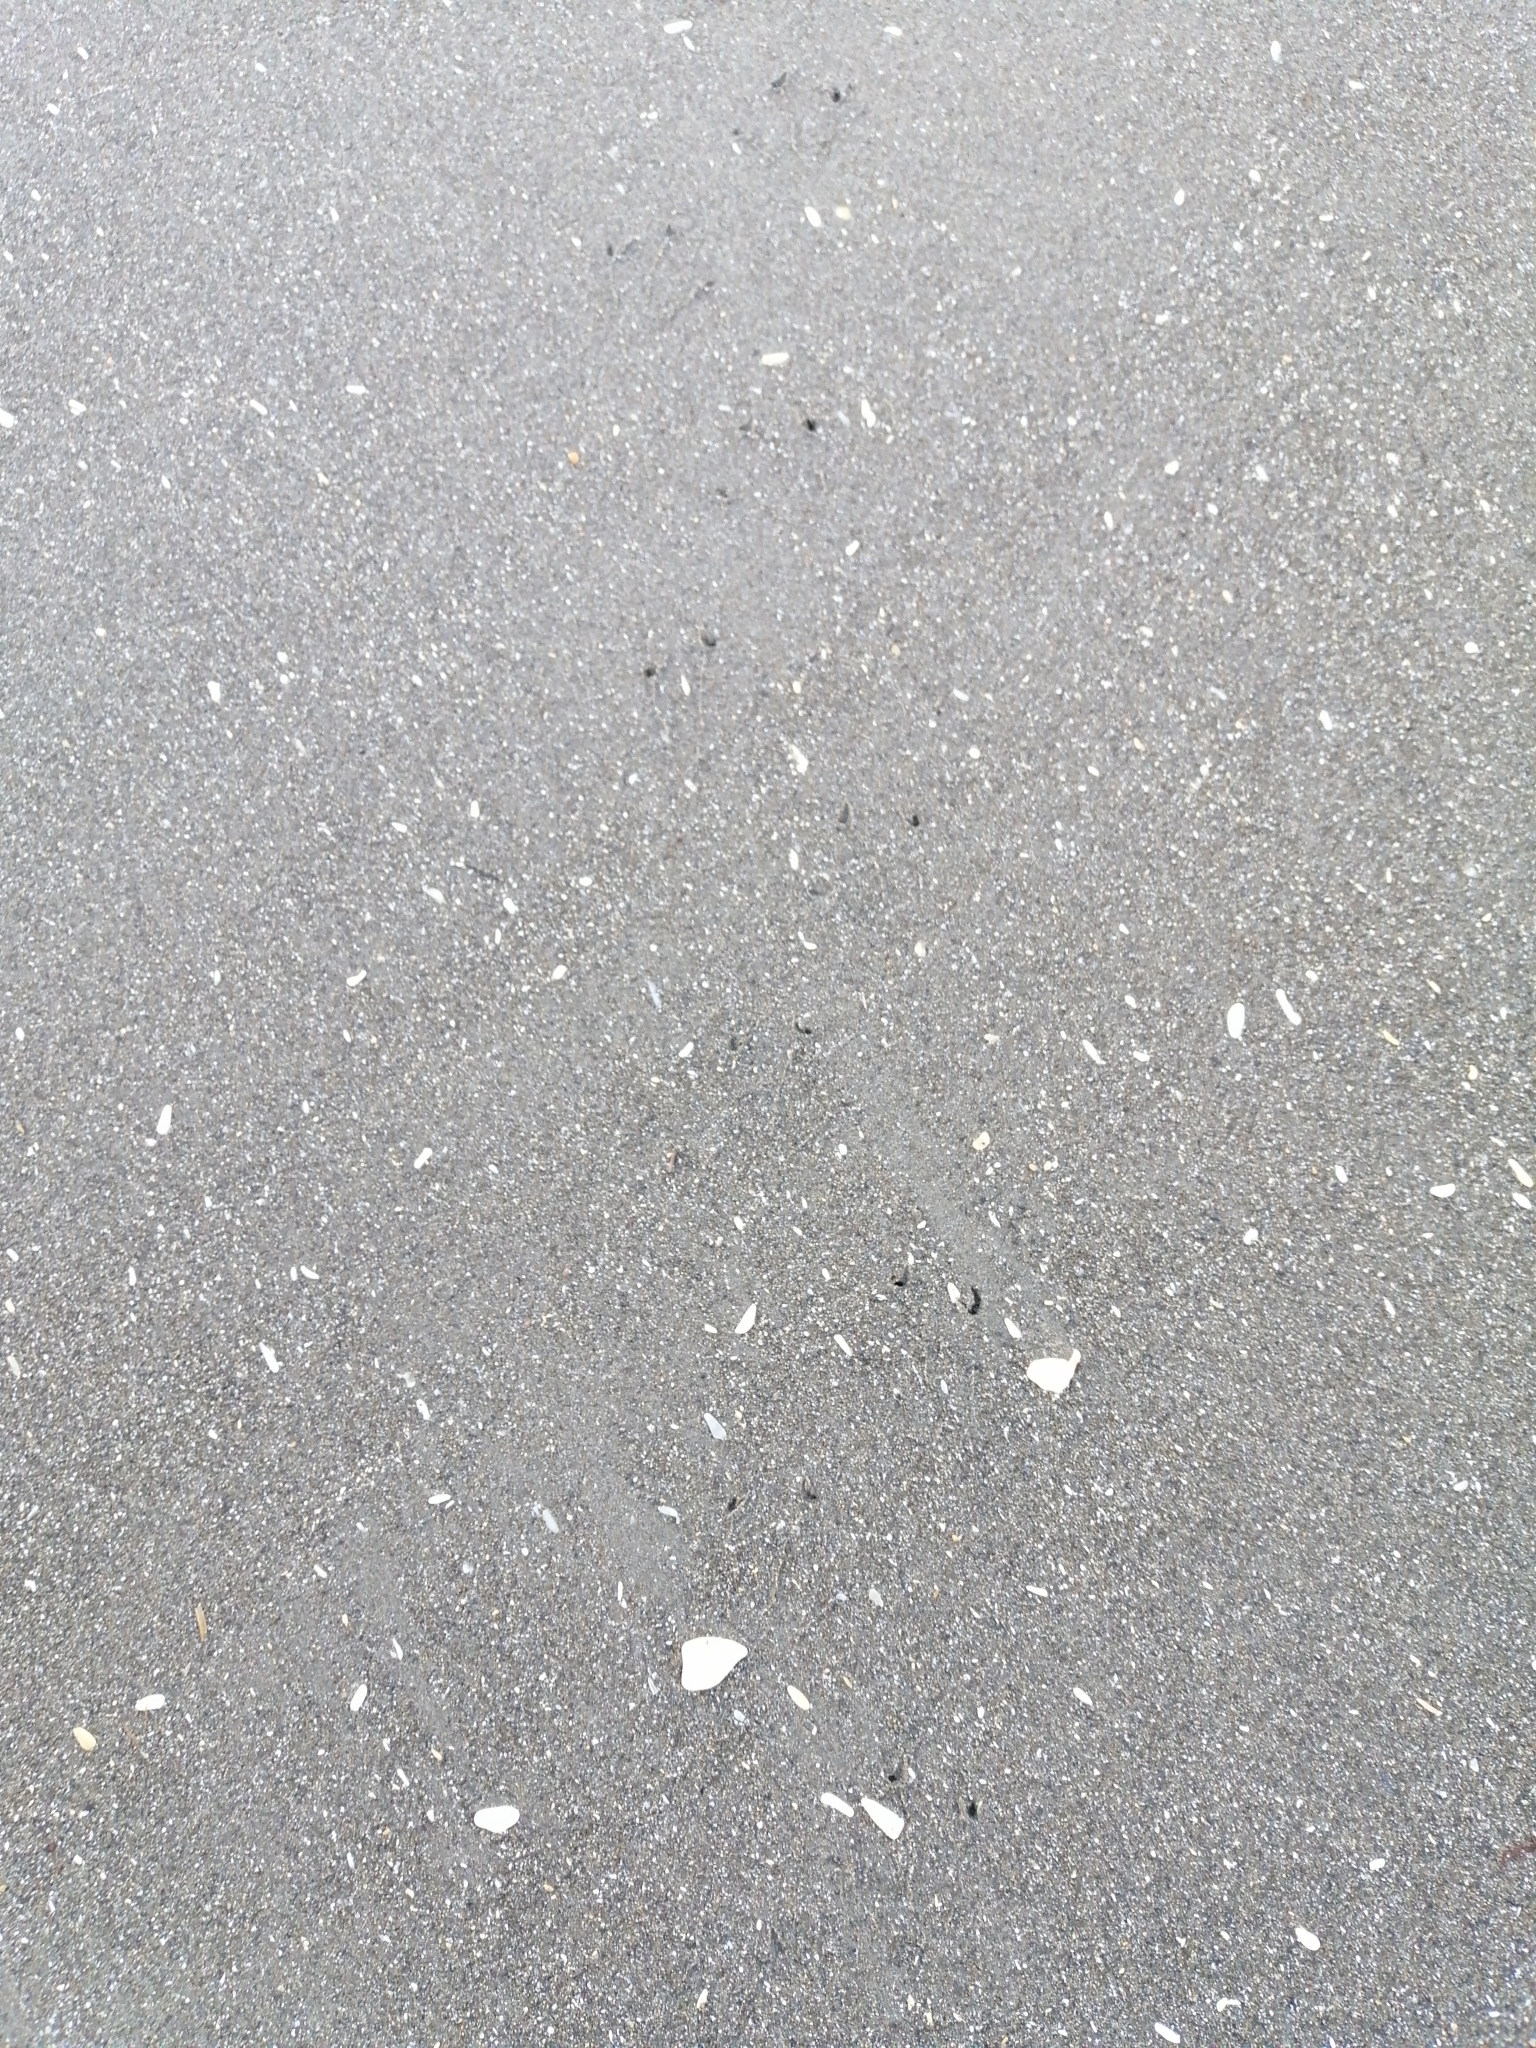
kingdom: Animalia
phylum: Chordata
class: Aves
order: Sphenisciformes
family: Spheniscidae
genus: Eudyptula
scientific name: Eudyptula minor
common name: Little penguin
